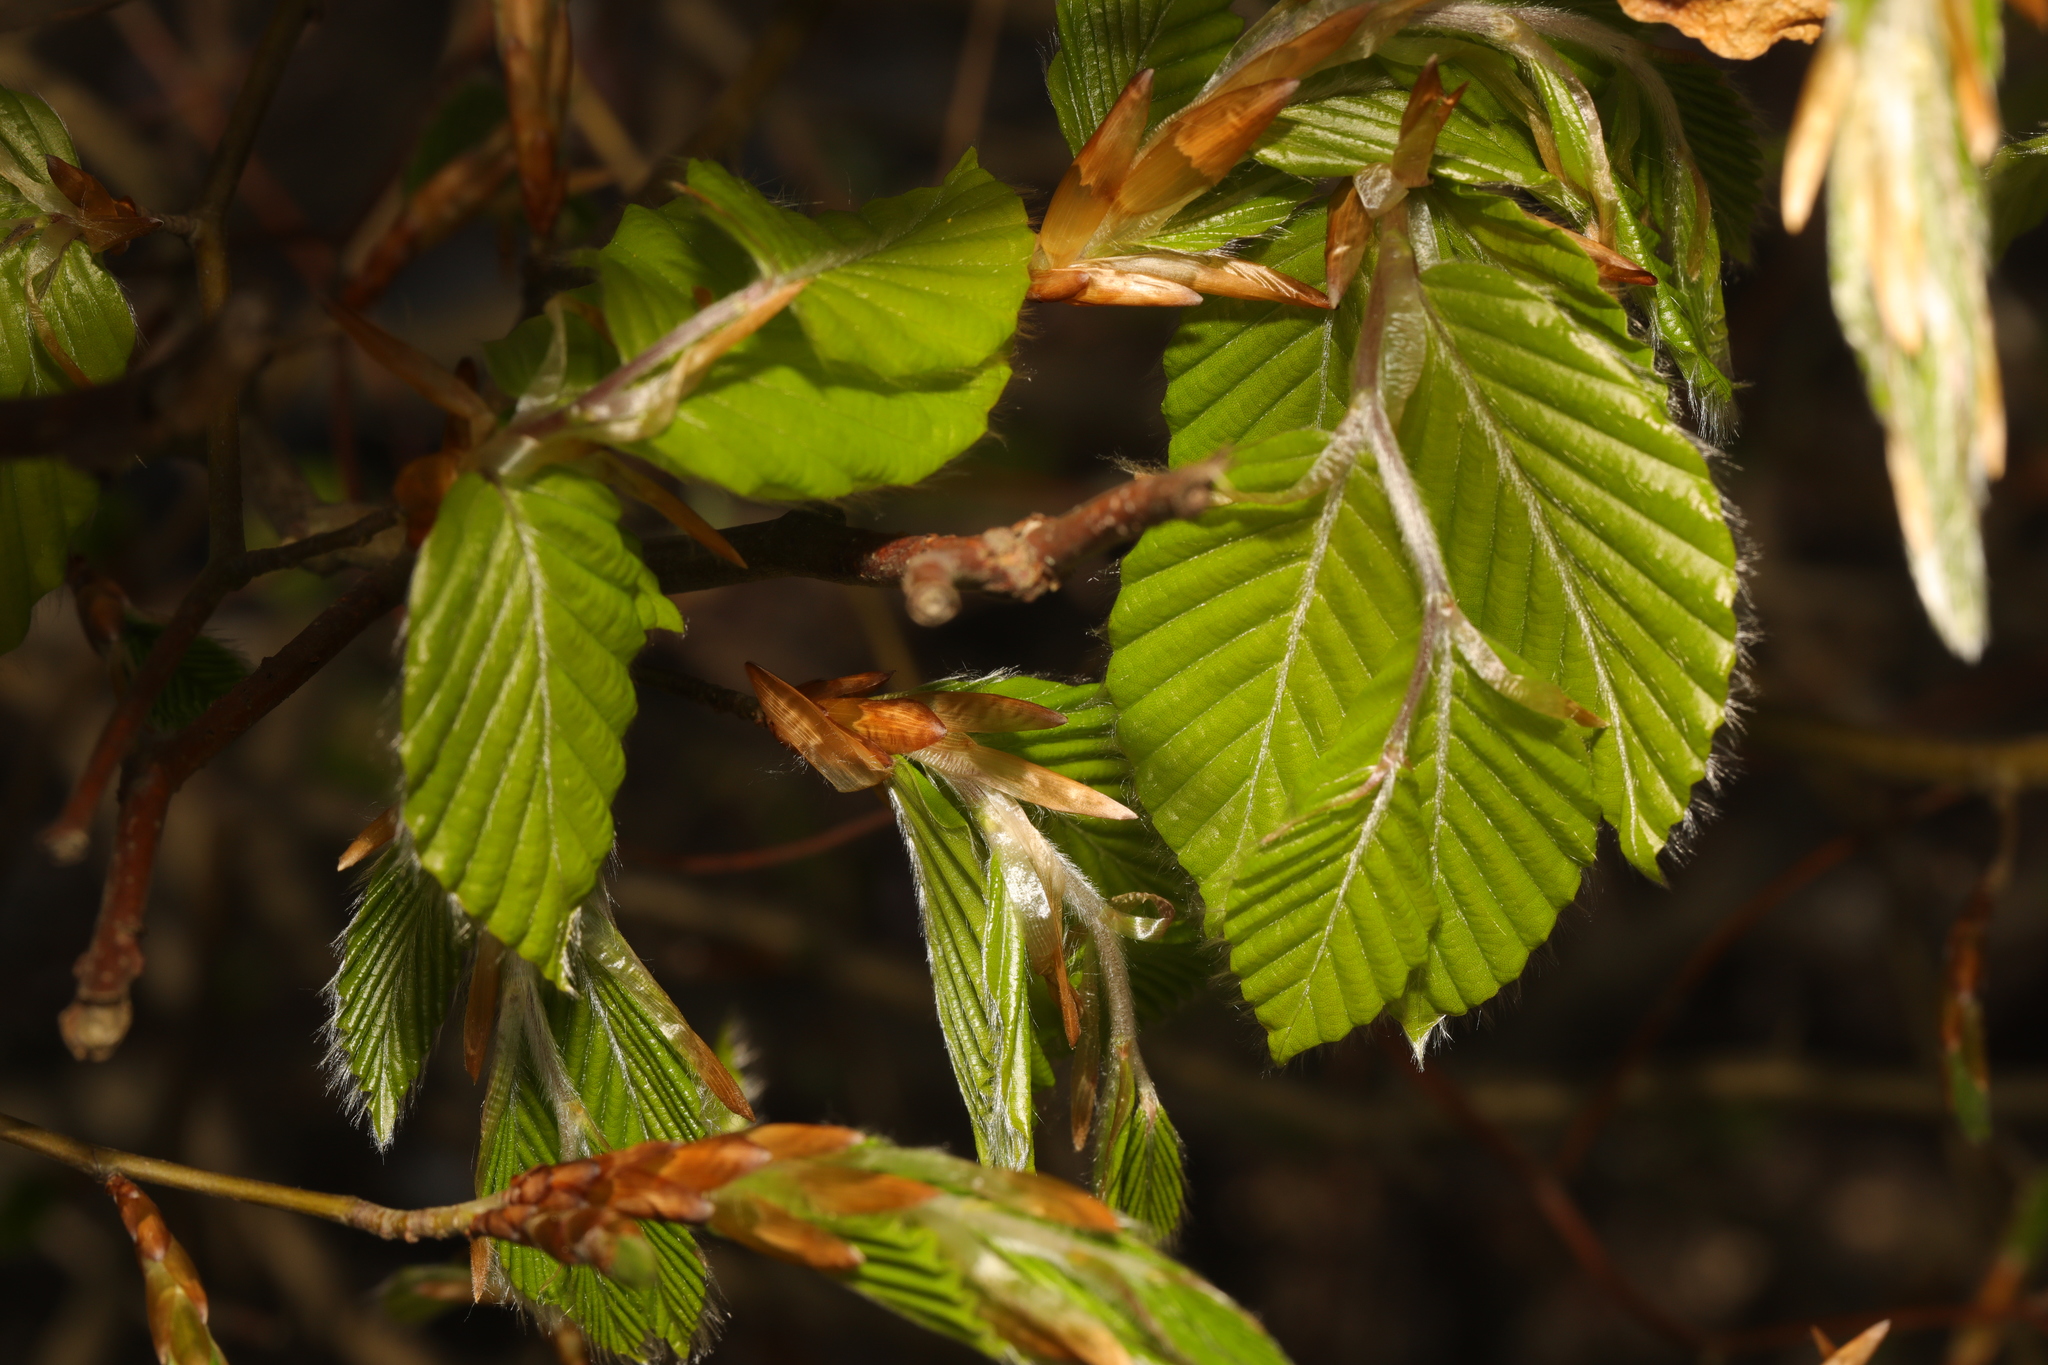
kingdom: Plantae
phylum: Tracheophyta
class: Magnoliopsida
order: Fagales
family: Betulaceae
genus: Carpinus
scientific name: Carpinus betulus
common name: Hornbeam
